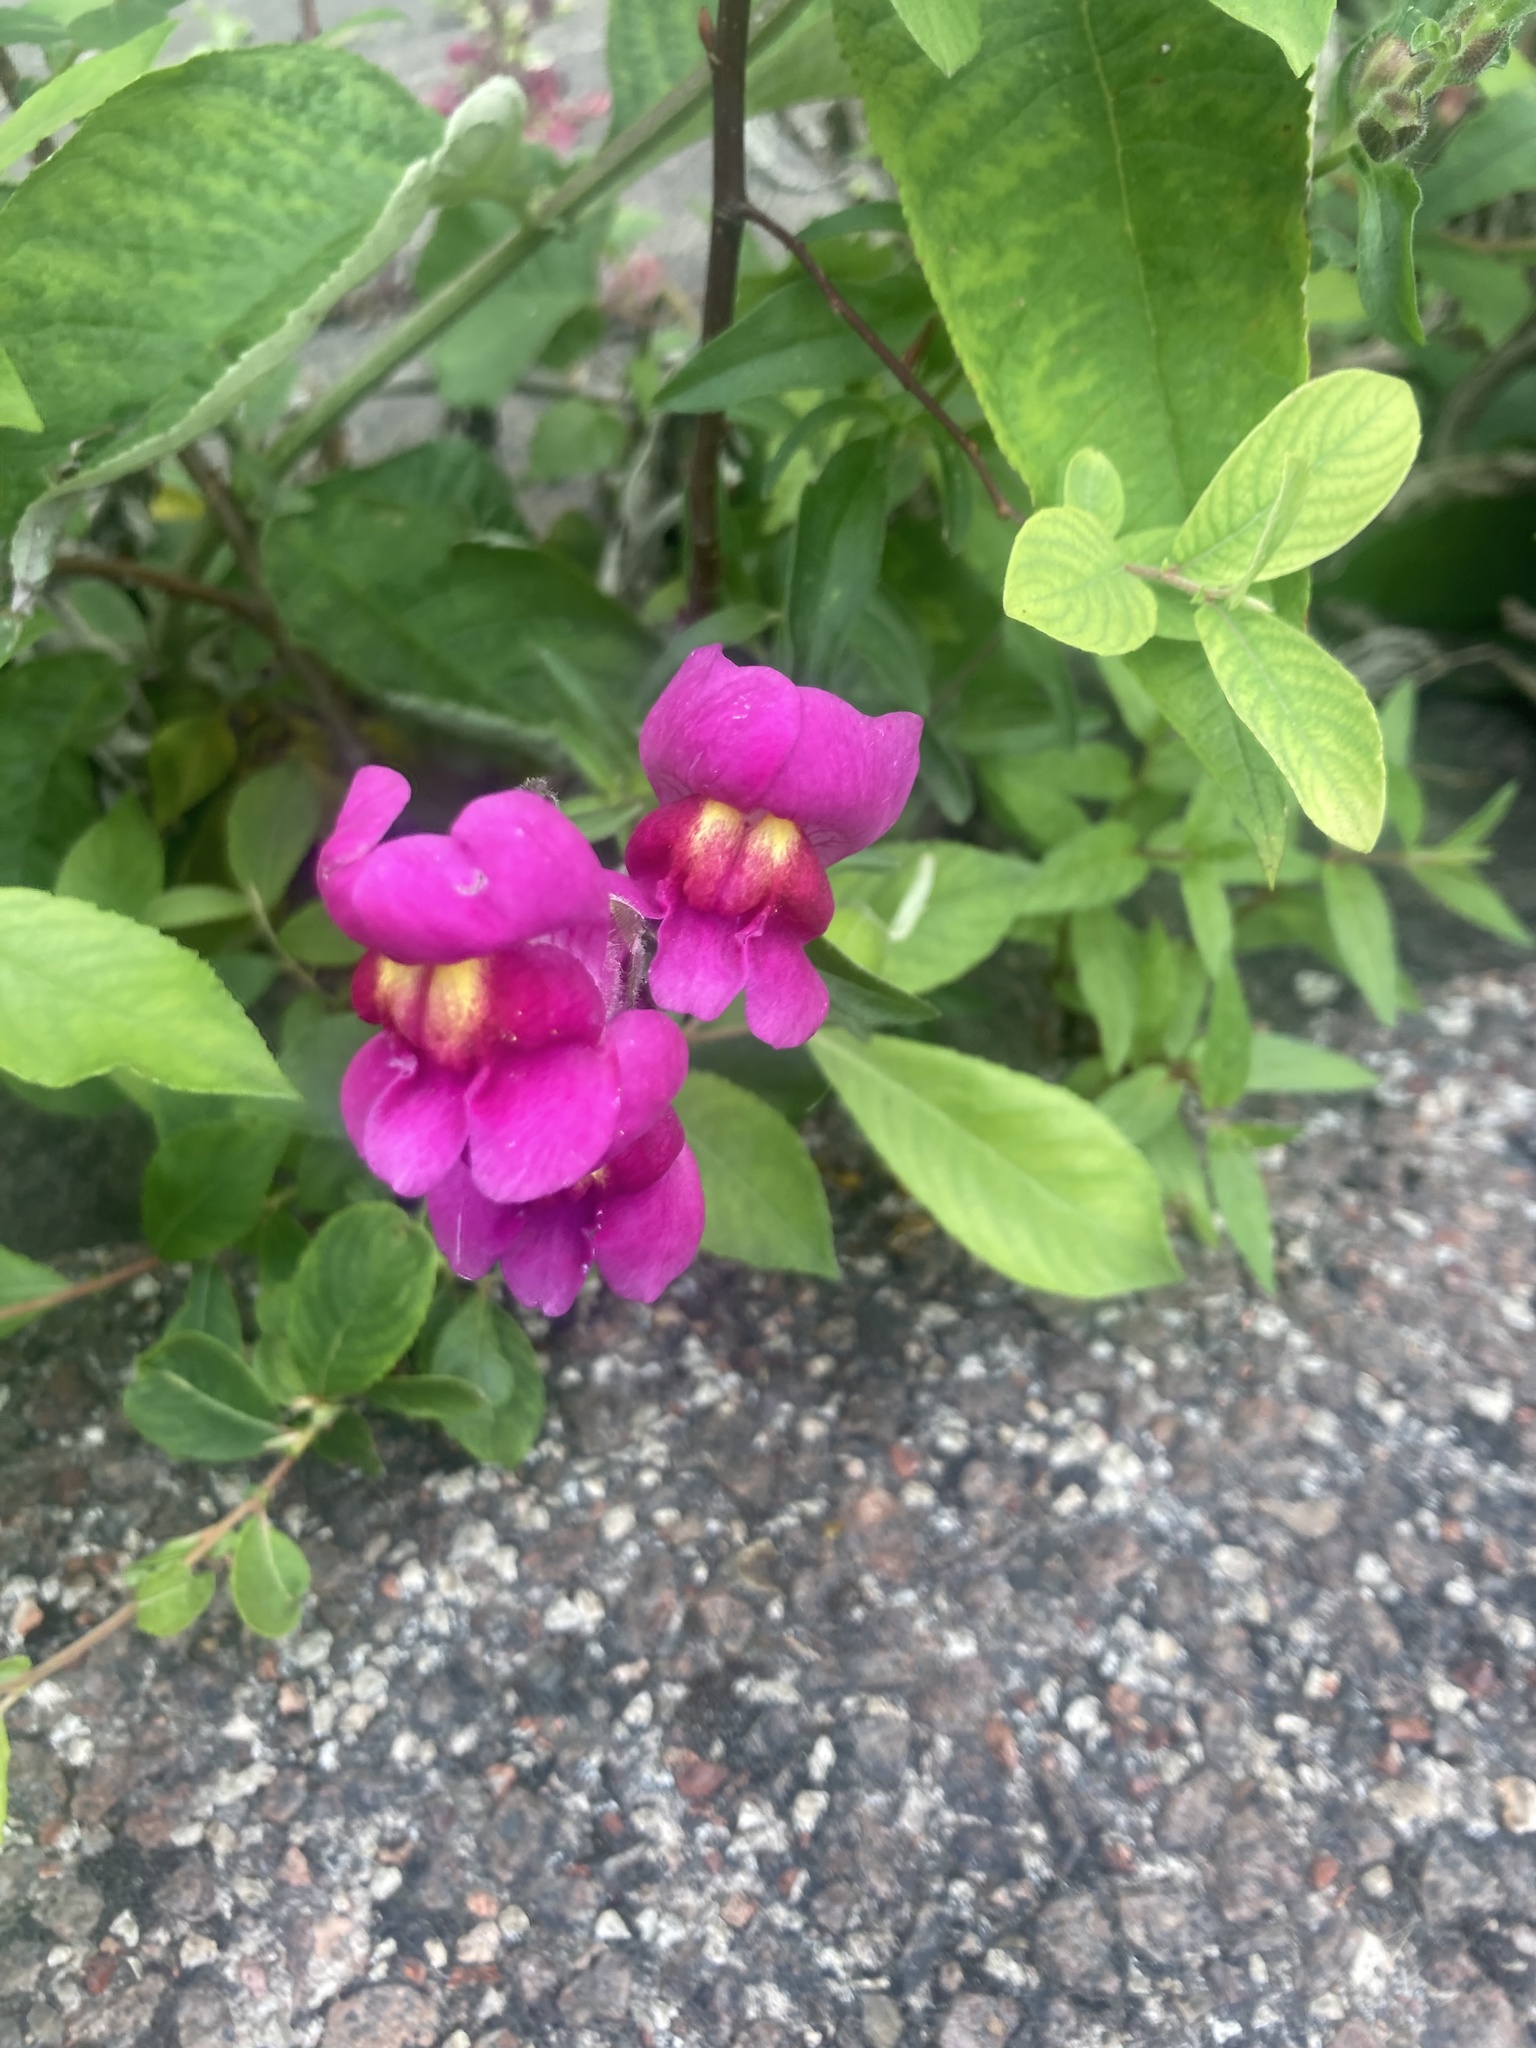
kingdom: Plantae
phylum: Tracheophyta
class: Magnoliopsida
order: Lamiales
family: Plantaginaceae
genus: Antirrhinum
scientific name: Antirrhinum majus
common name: Snapdragon
